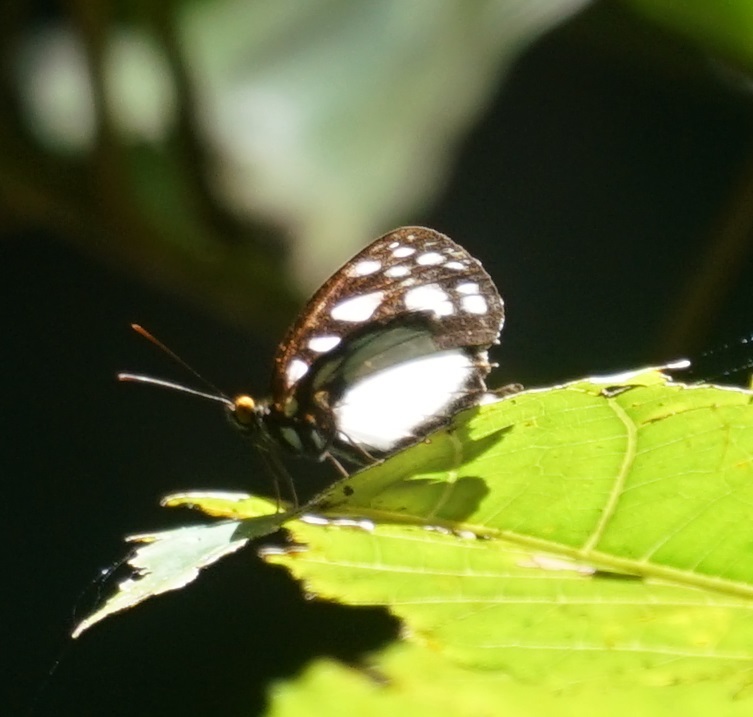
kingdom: Animalia
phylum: Arthropoda
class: Insecta
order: Lepidoptera
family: Nymphalidae
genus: Neptis
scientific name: Neptis praslini
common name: Yellow-eyed plane
